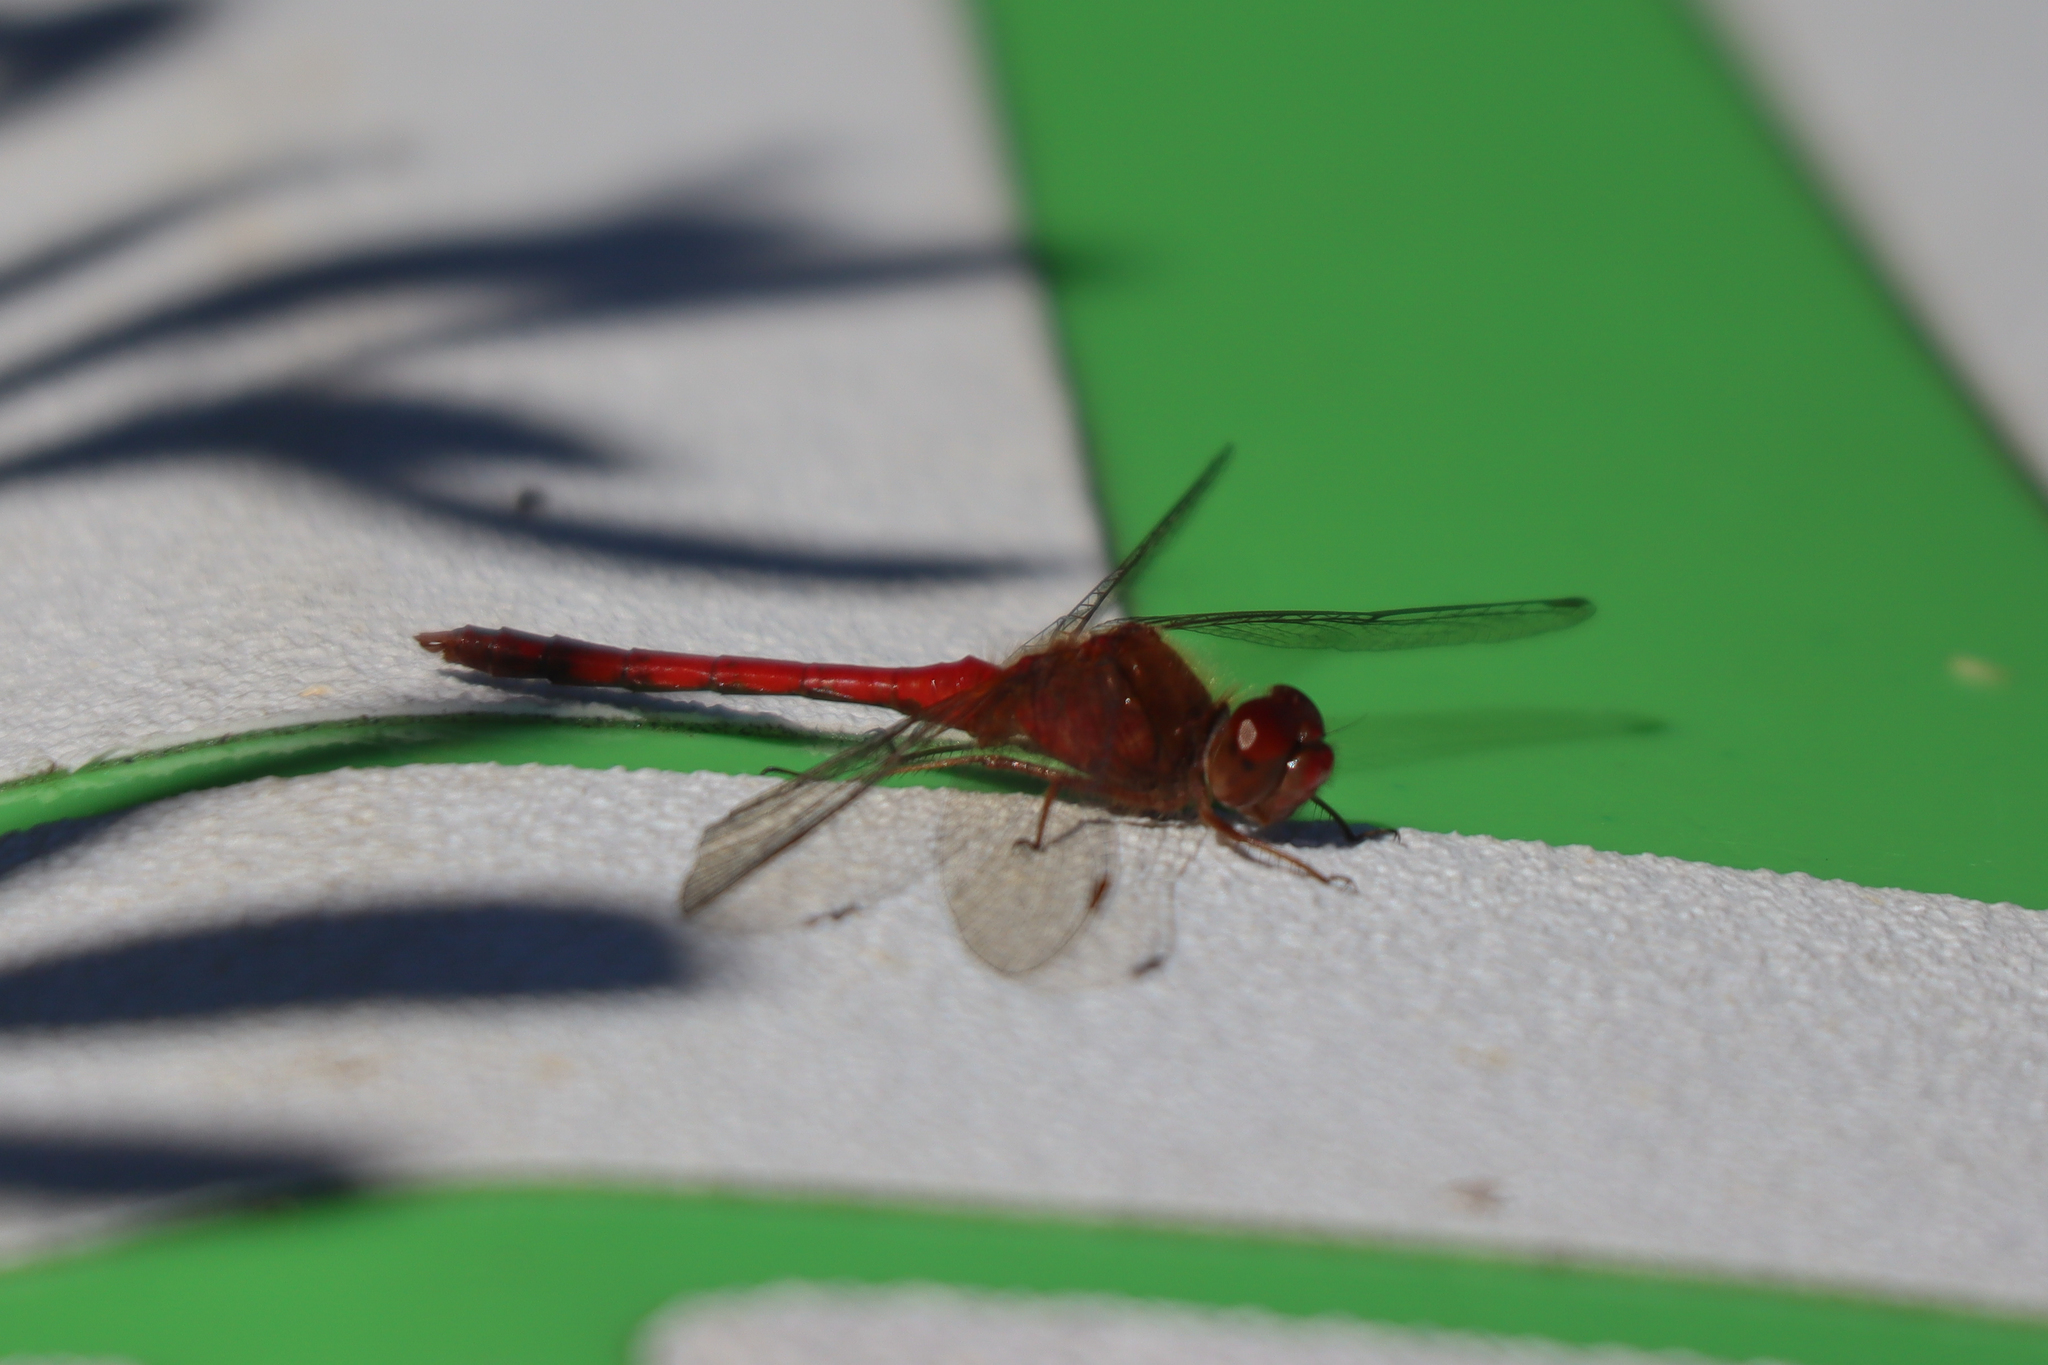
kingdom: Animalia
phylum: Arthropoda
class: Insecta
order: Odonata
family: Libellulidae
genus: Sympetrum
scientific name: Sympetrum vicinum
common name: Autumn meadowhawk
